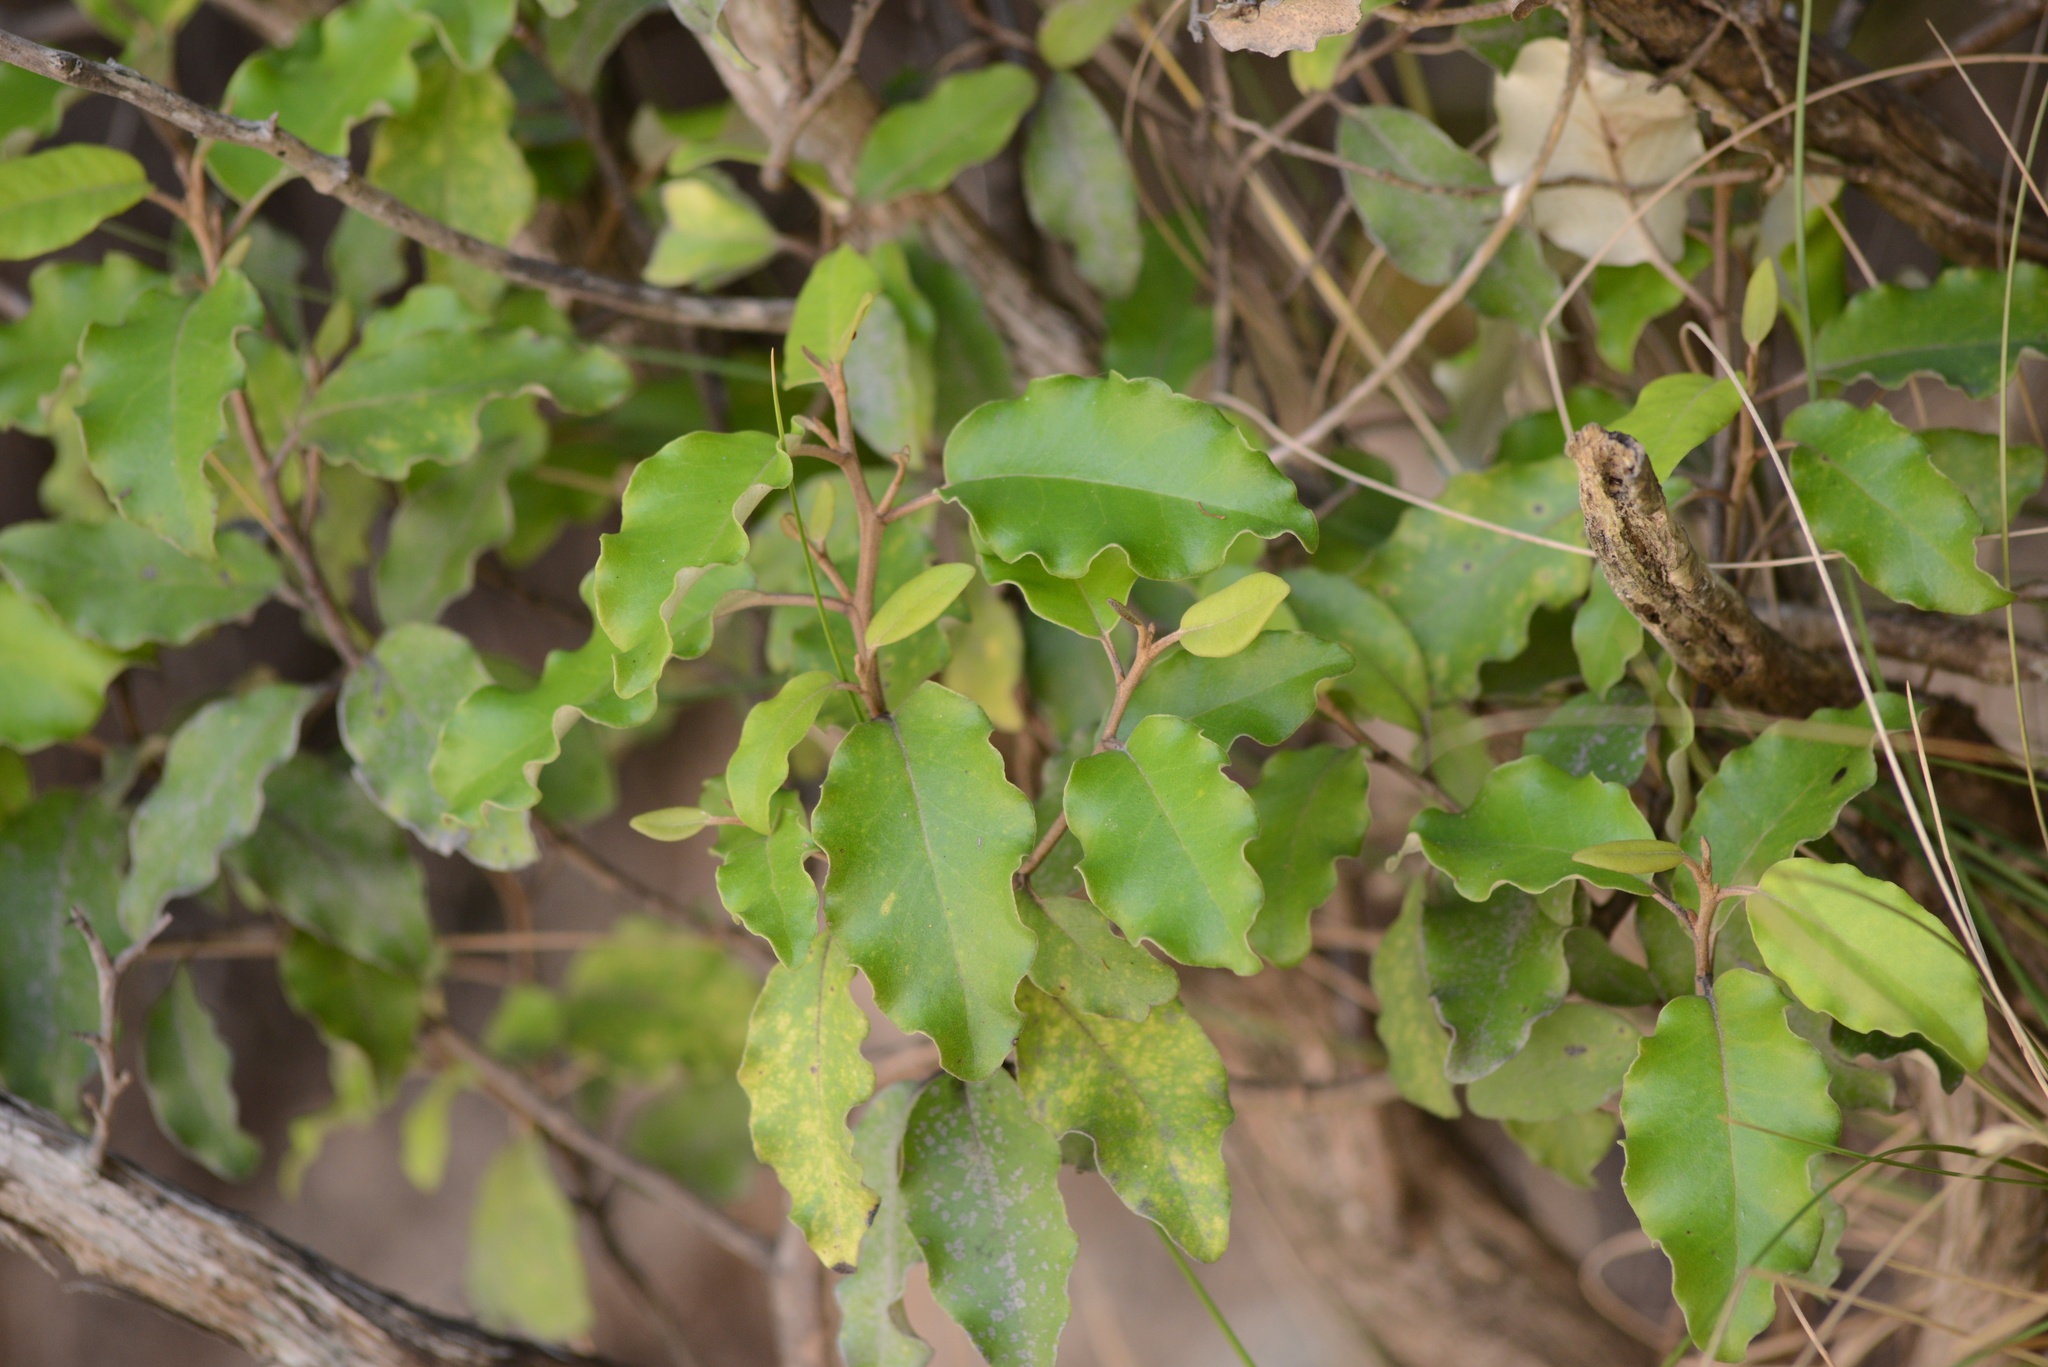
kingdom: Plantae
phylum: Tracheophyta
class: Magnoliopsida
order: Asterales
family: Asteraceae
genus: Olearia
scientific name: Olearia paniculata
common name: Akiraho
